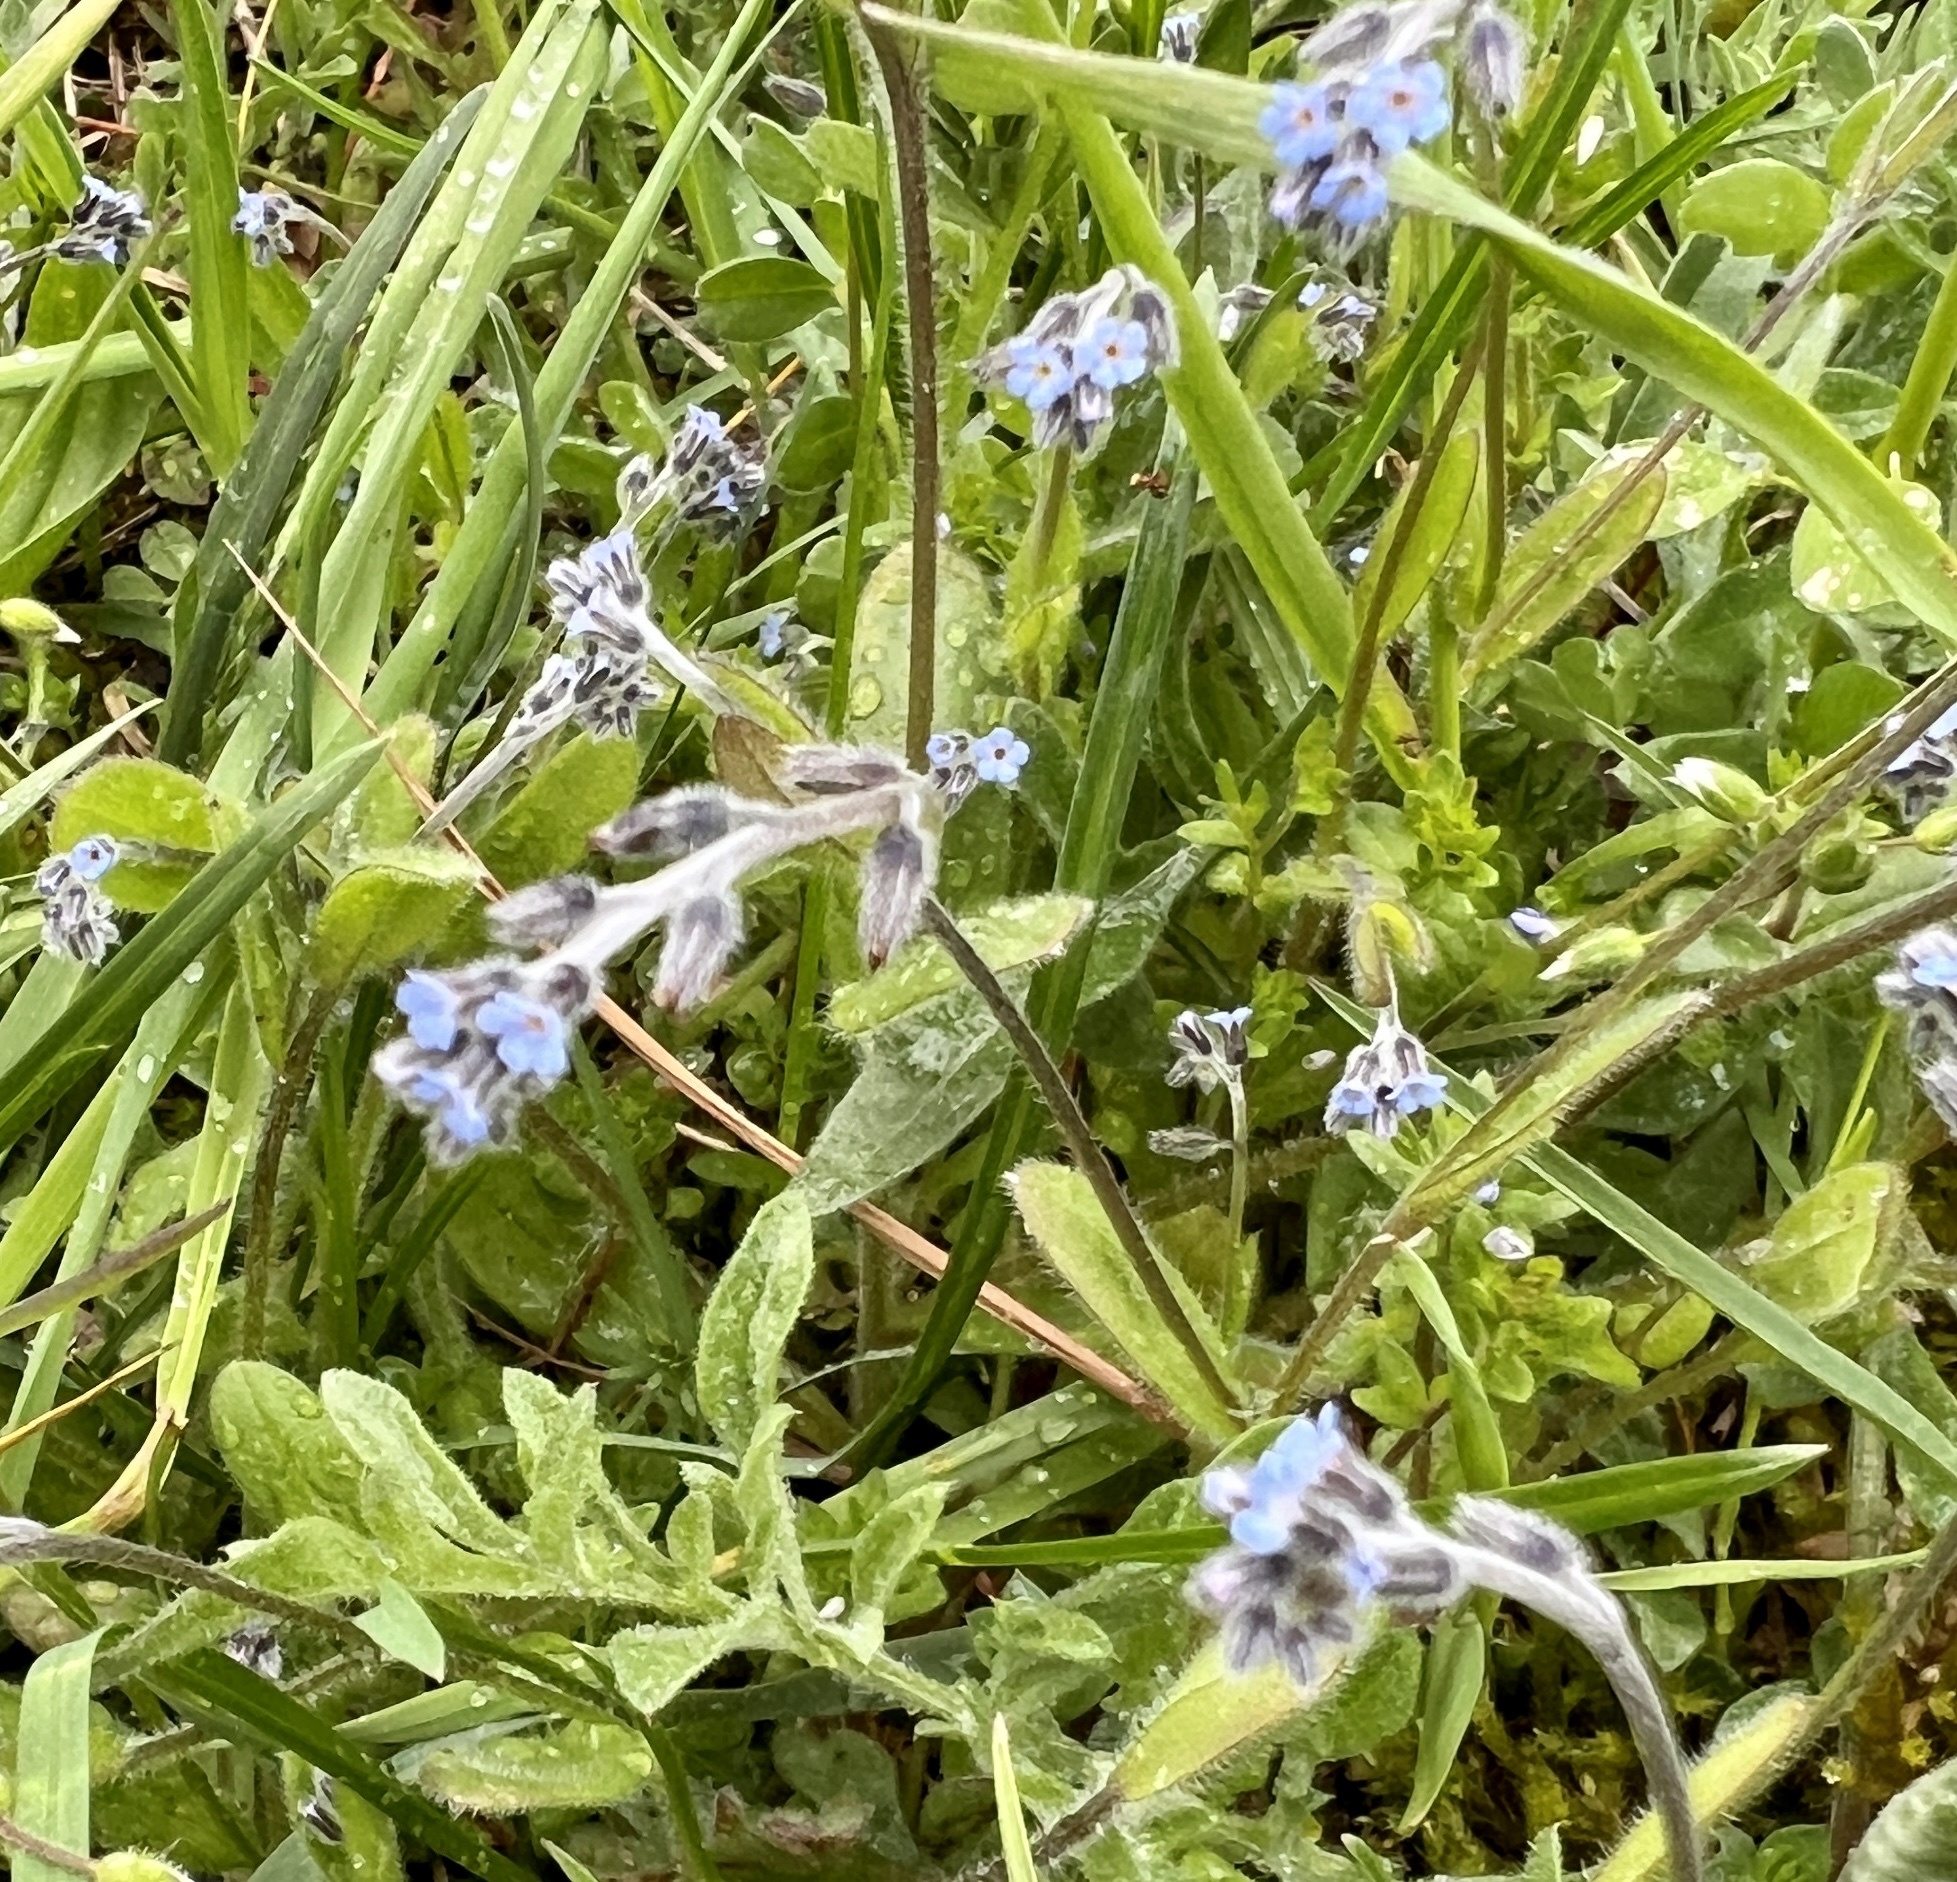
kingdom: Plantae
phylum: Tracheophyta
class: Magnoliopsida
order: Boraginales
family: Boraginaceae
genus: Myosotis
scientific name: Myosotis ramosissima
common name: Early forget-me-not
